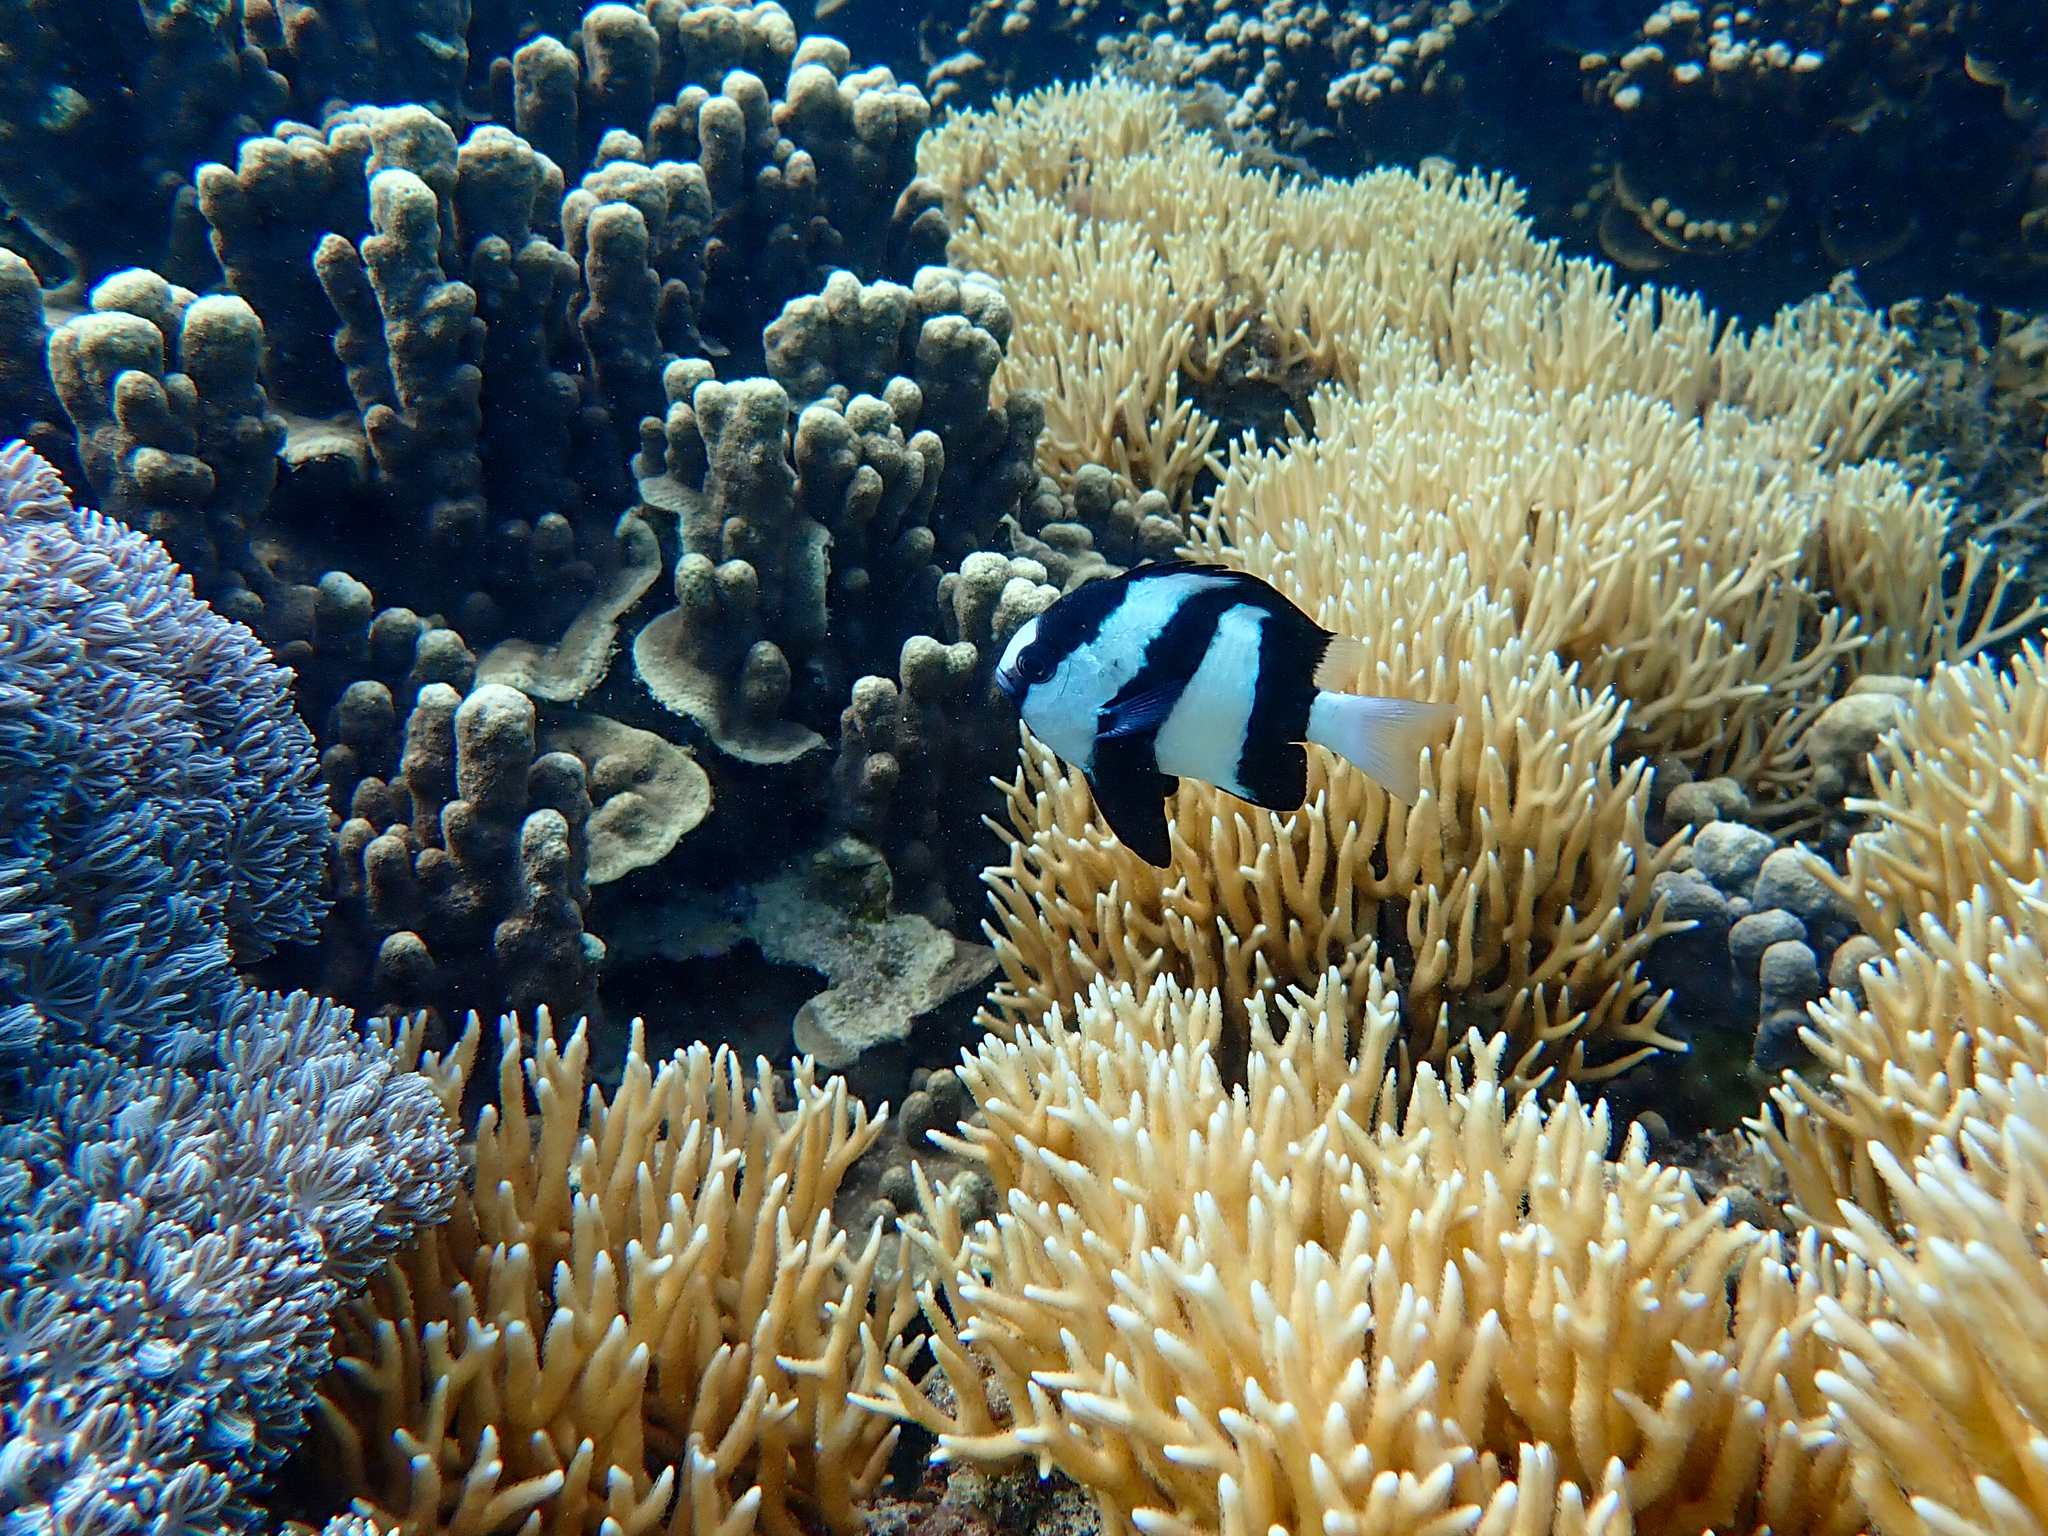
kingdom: Animalia
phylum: Chordata
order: Perciformes
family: Pomacentridae
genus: Dascyllus
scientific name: Dascyllus aruanus
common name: Humbug dascyllus
